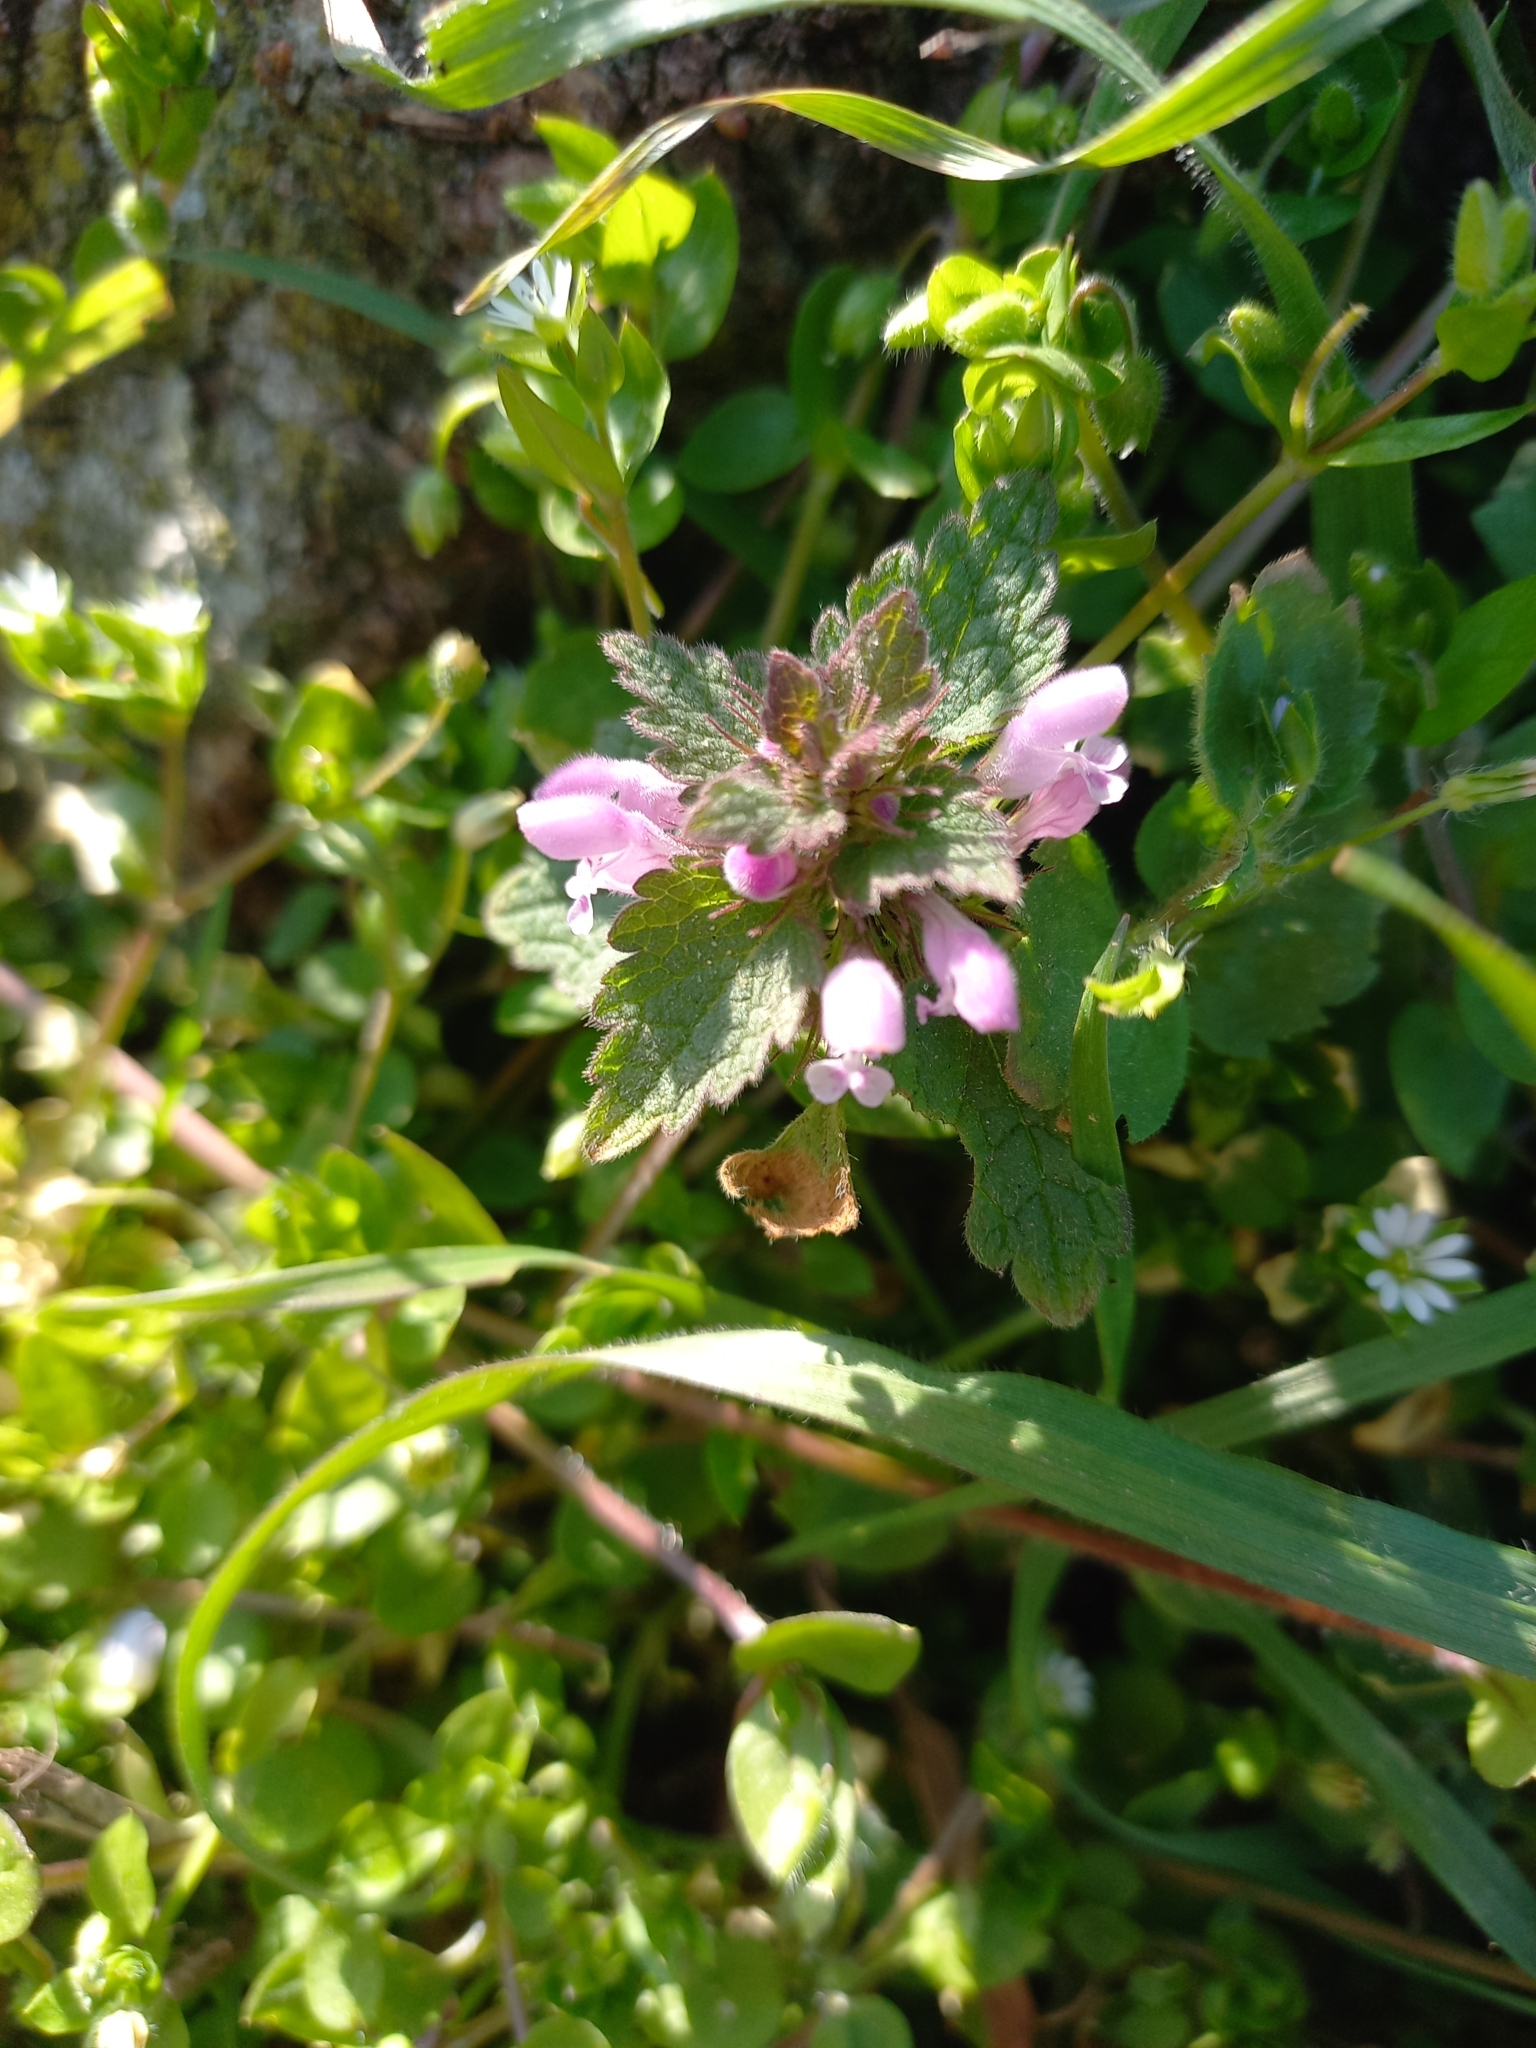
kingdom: Plantae
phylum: Tracheophyta
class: Magnoliopsida
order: Lamiales
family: Lamiaceae
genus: Lamium
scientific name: Lamium purpureum
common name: Red dead-nettle
